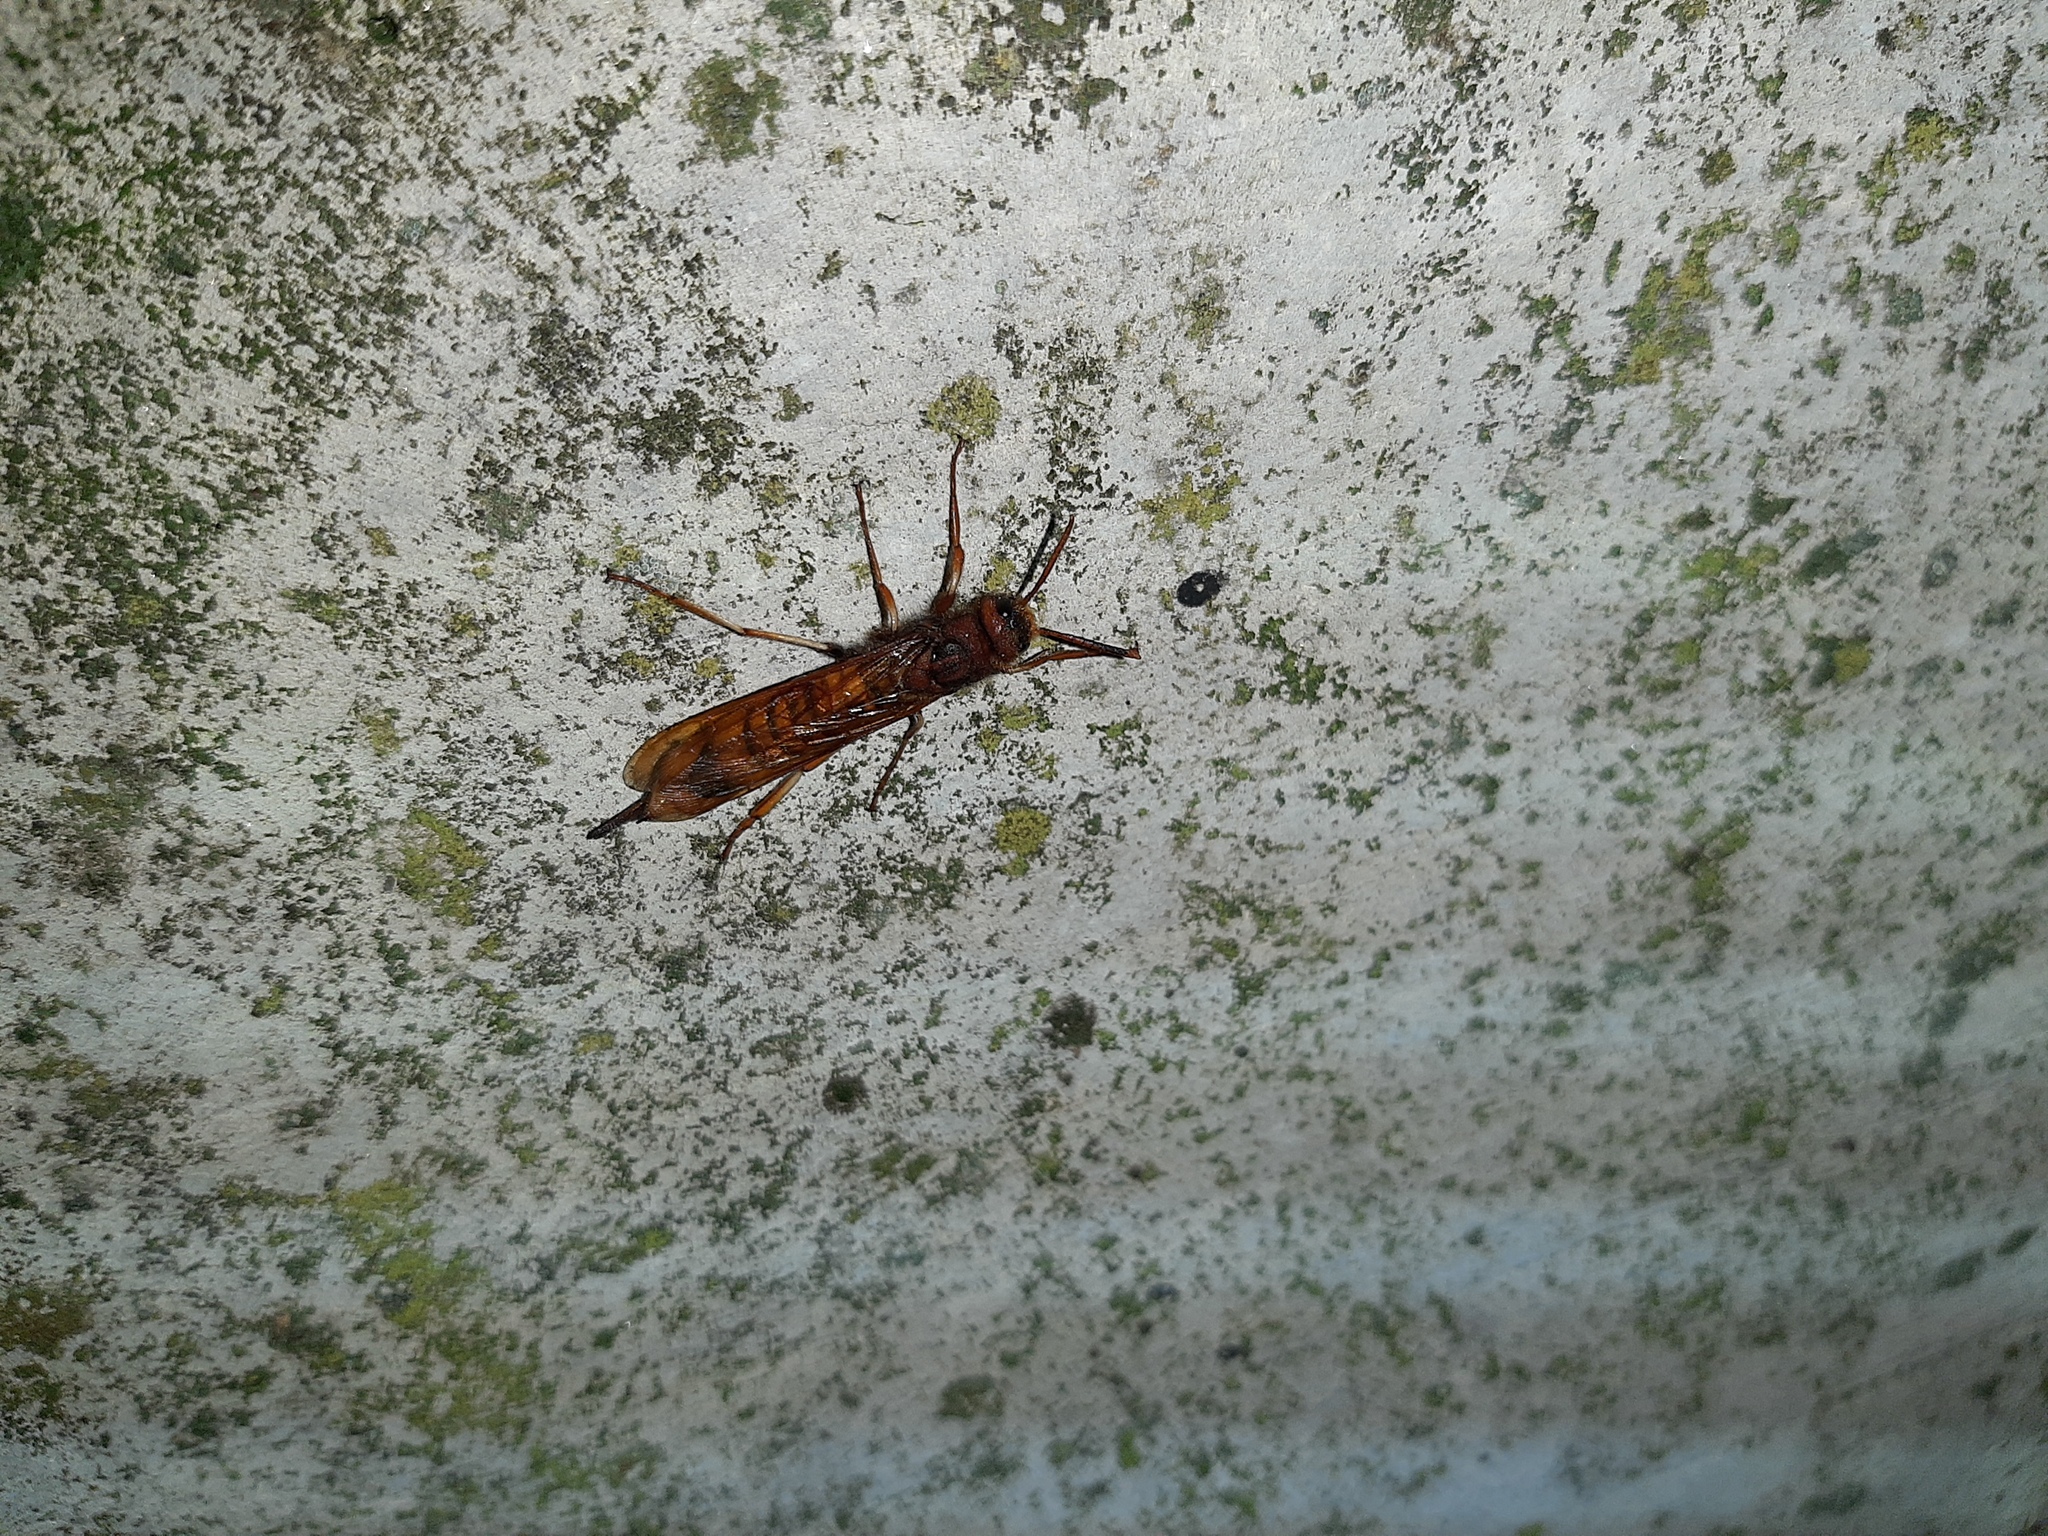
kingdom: Animalia
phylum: Arthropoda
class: Insecta
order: Hymenoptera
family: Siricidae
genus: Tremex
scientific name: Tremex fuscicornis
